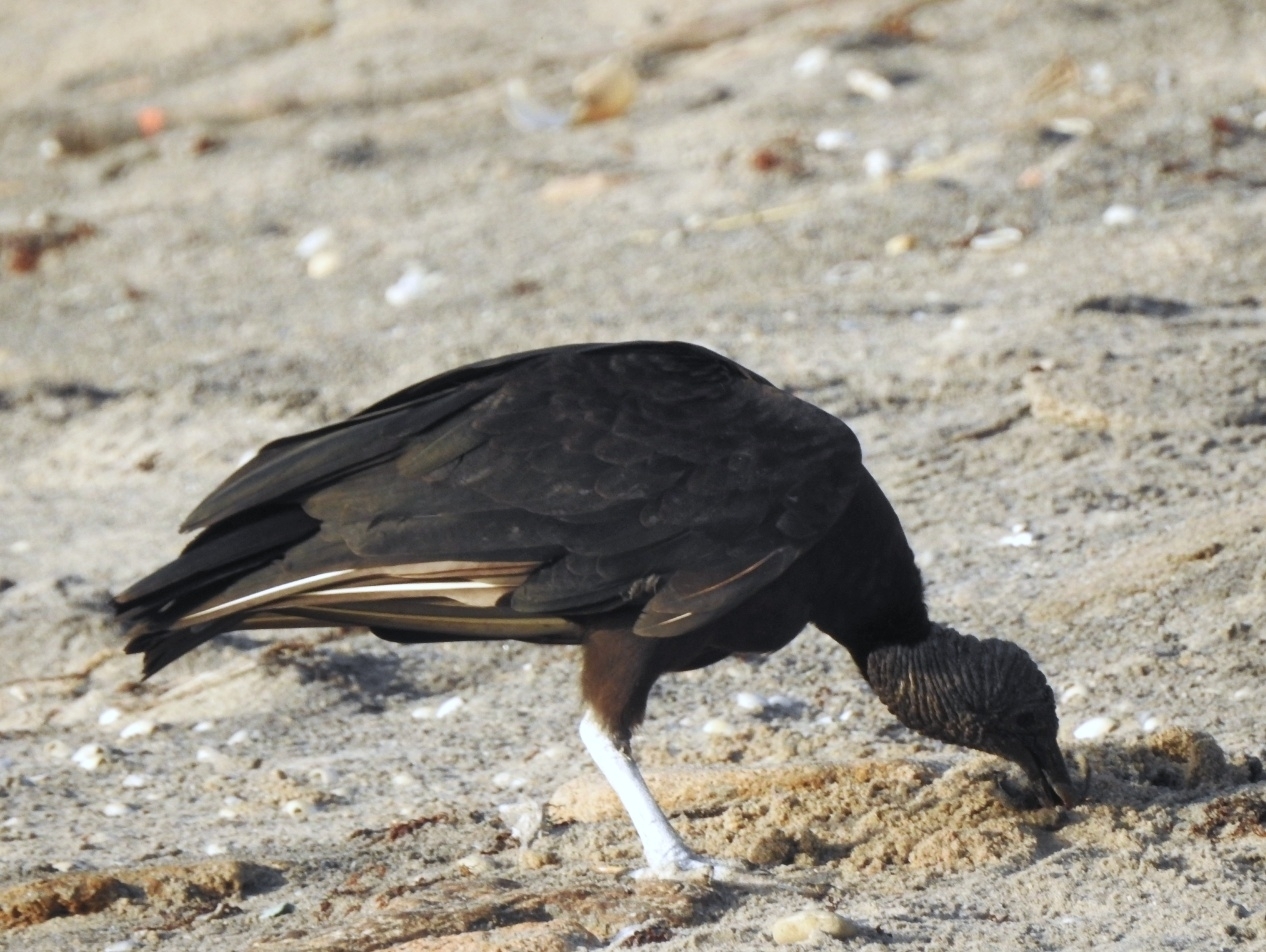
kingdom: Animalia
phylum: Chordata
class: Aves
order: Accipitriformes
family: Cathartidae
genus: Coragyps
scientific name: Coragyps atratus
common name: Black vulture
